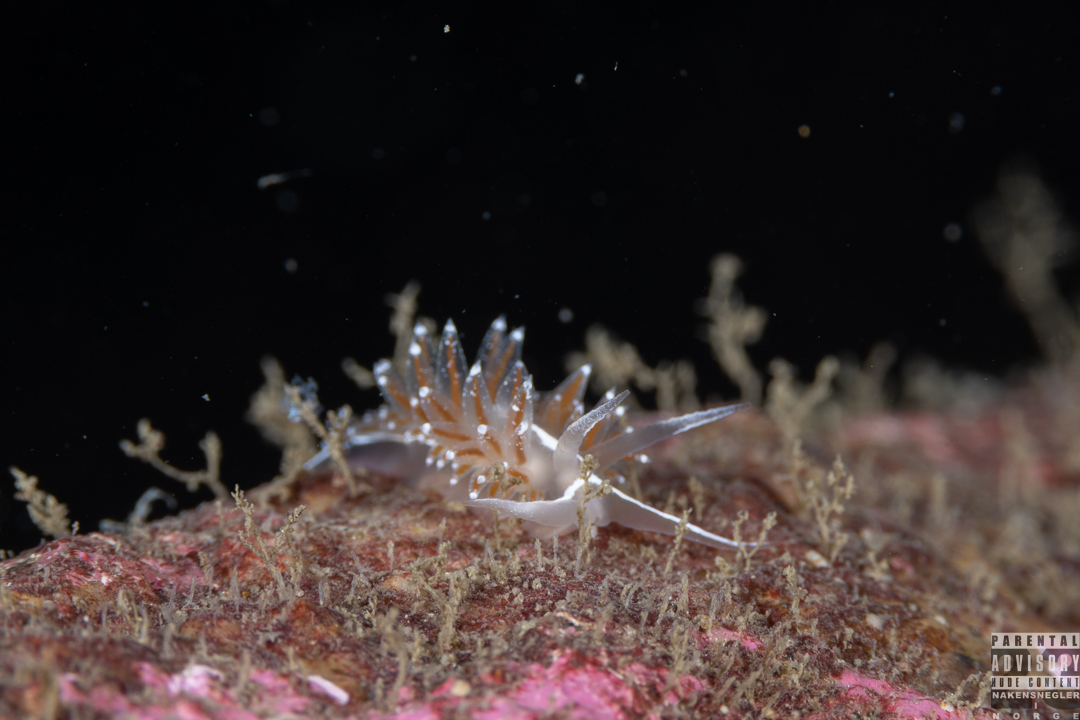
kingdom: Animalia
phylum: Mollusca
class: Gastropoda
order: Nudibranchia
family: Coryphellidae
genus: Coryphella
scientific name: Coryphella monicae
